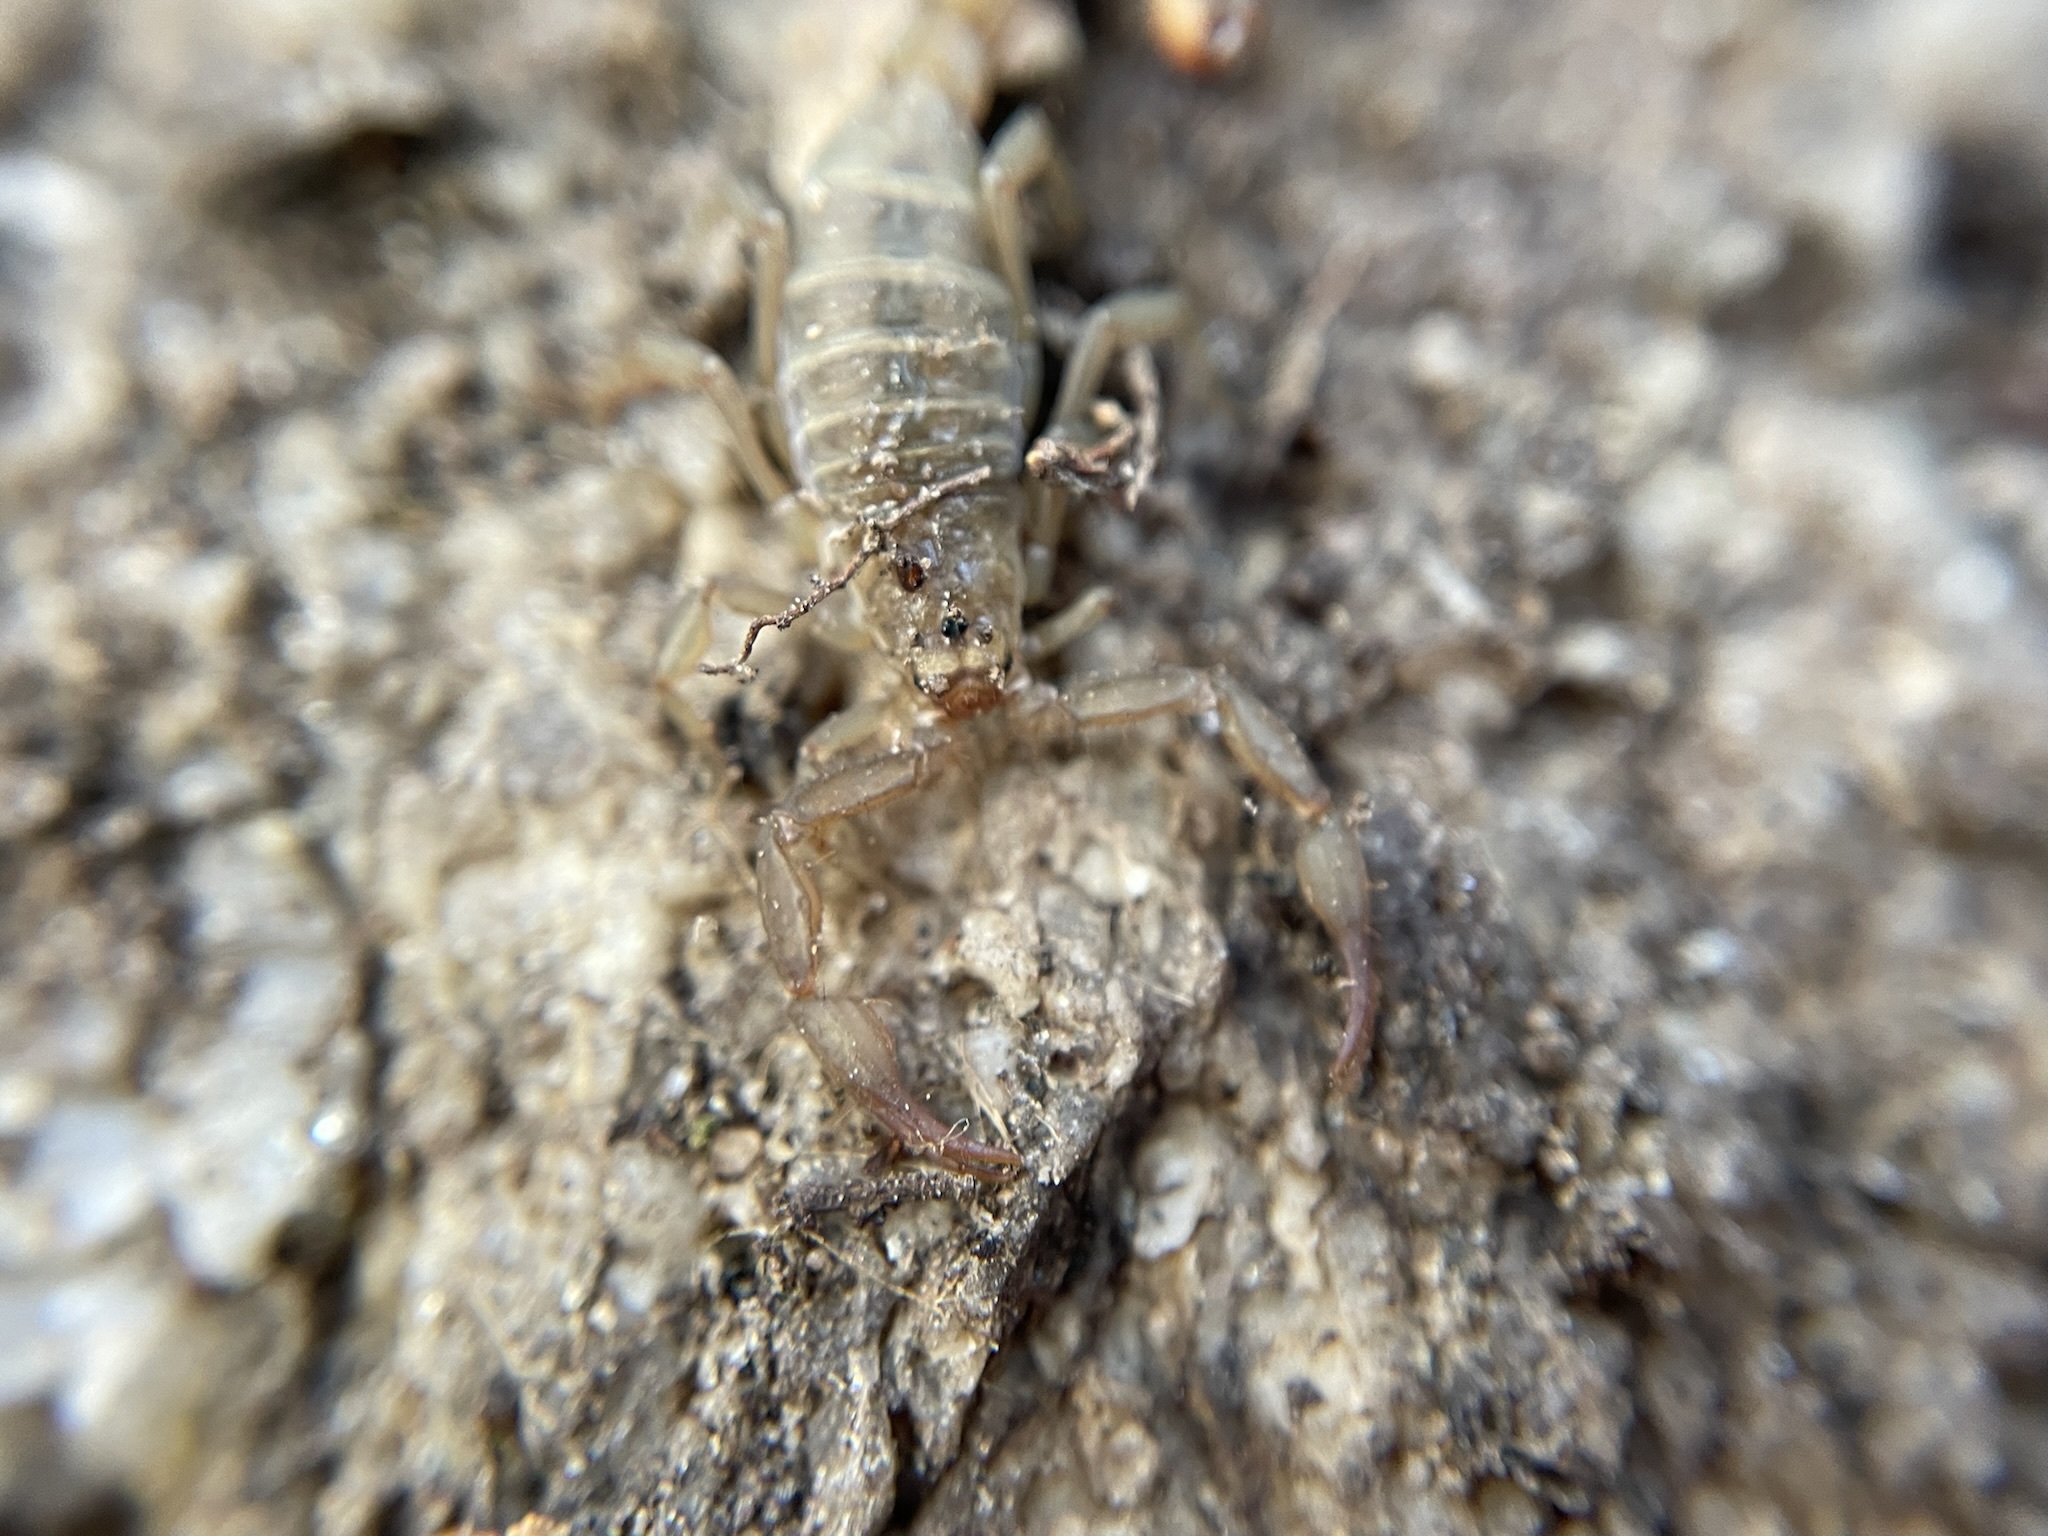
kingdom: Animalia
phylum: Arthropoda
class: Arachnida
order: Scorpiones
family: Vaejovidae
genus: Vaejovis
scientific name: Vaejovis deboerae
